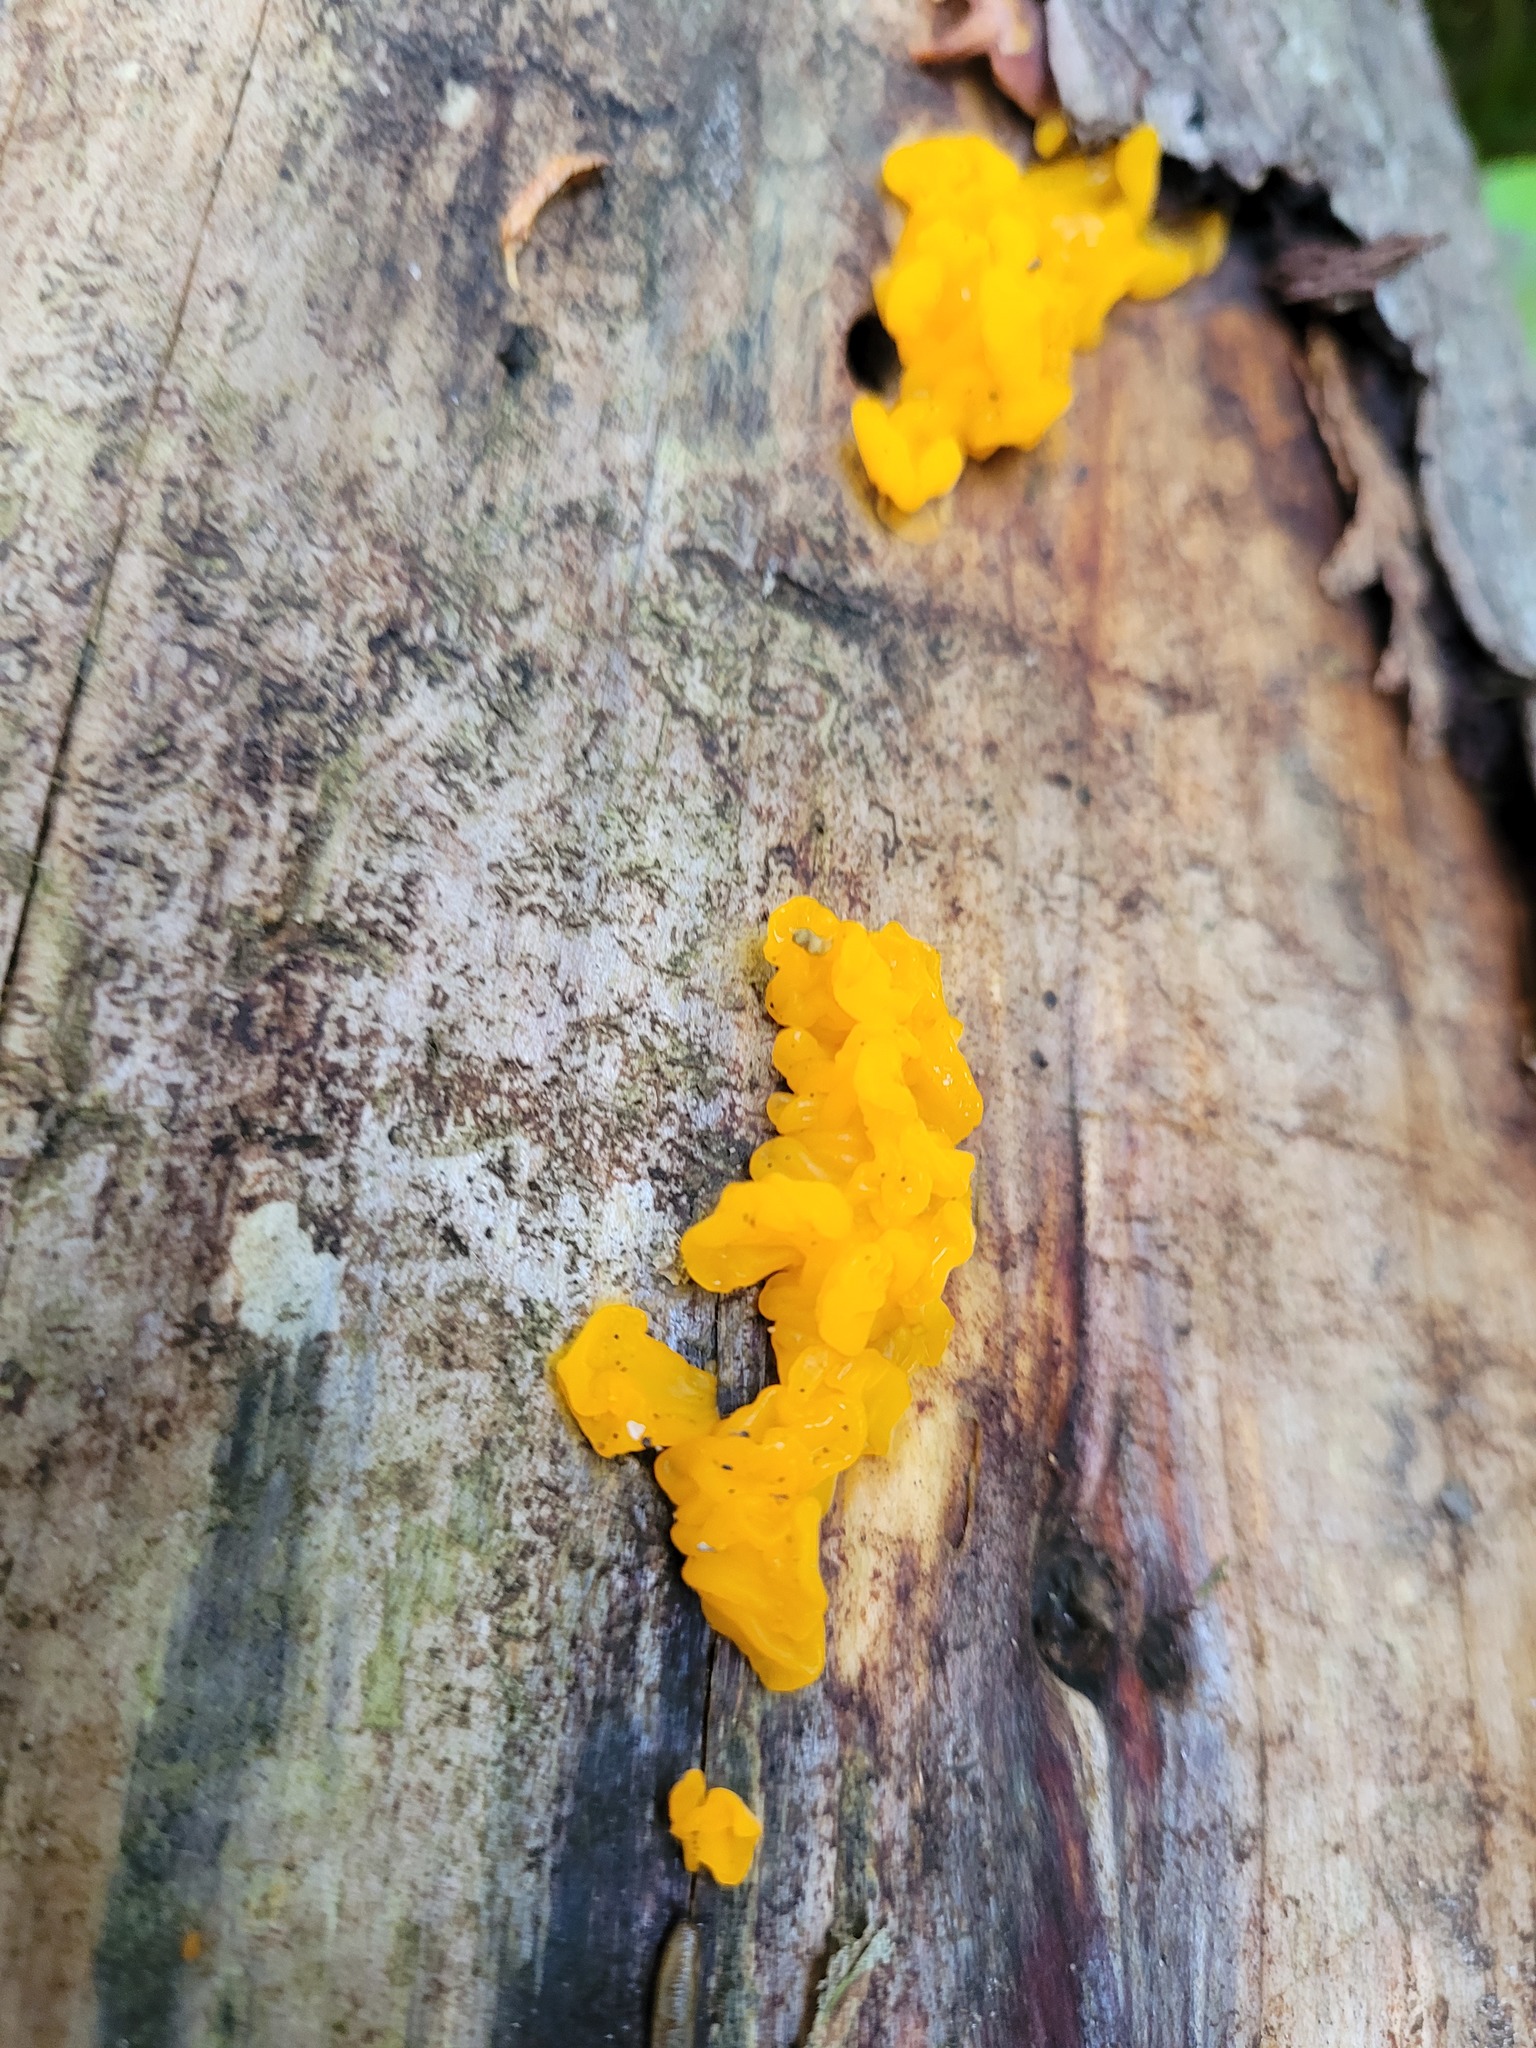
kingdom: Fungi
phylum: Basidiomycota
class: Dacrymycetes
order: Dacrymycetales
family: Dacrymycetaceae
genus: Dacrymyces
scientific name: Dacrymyces chrysospermus
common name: Orange jelly spot
